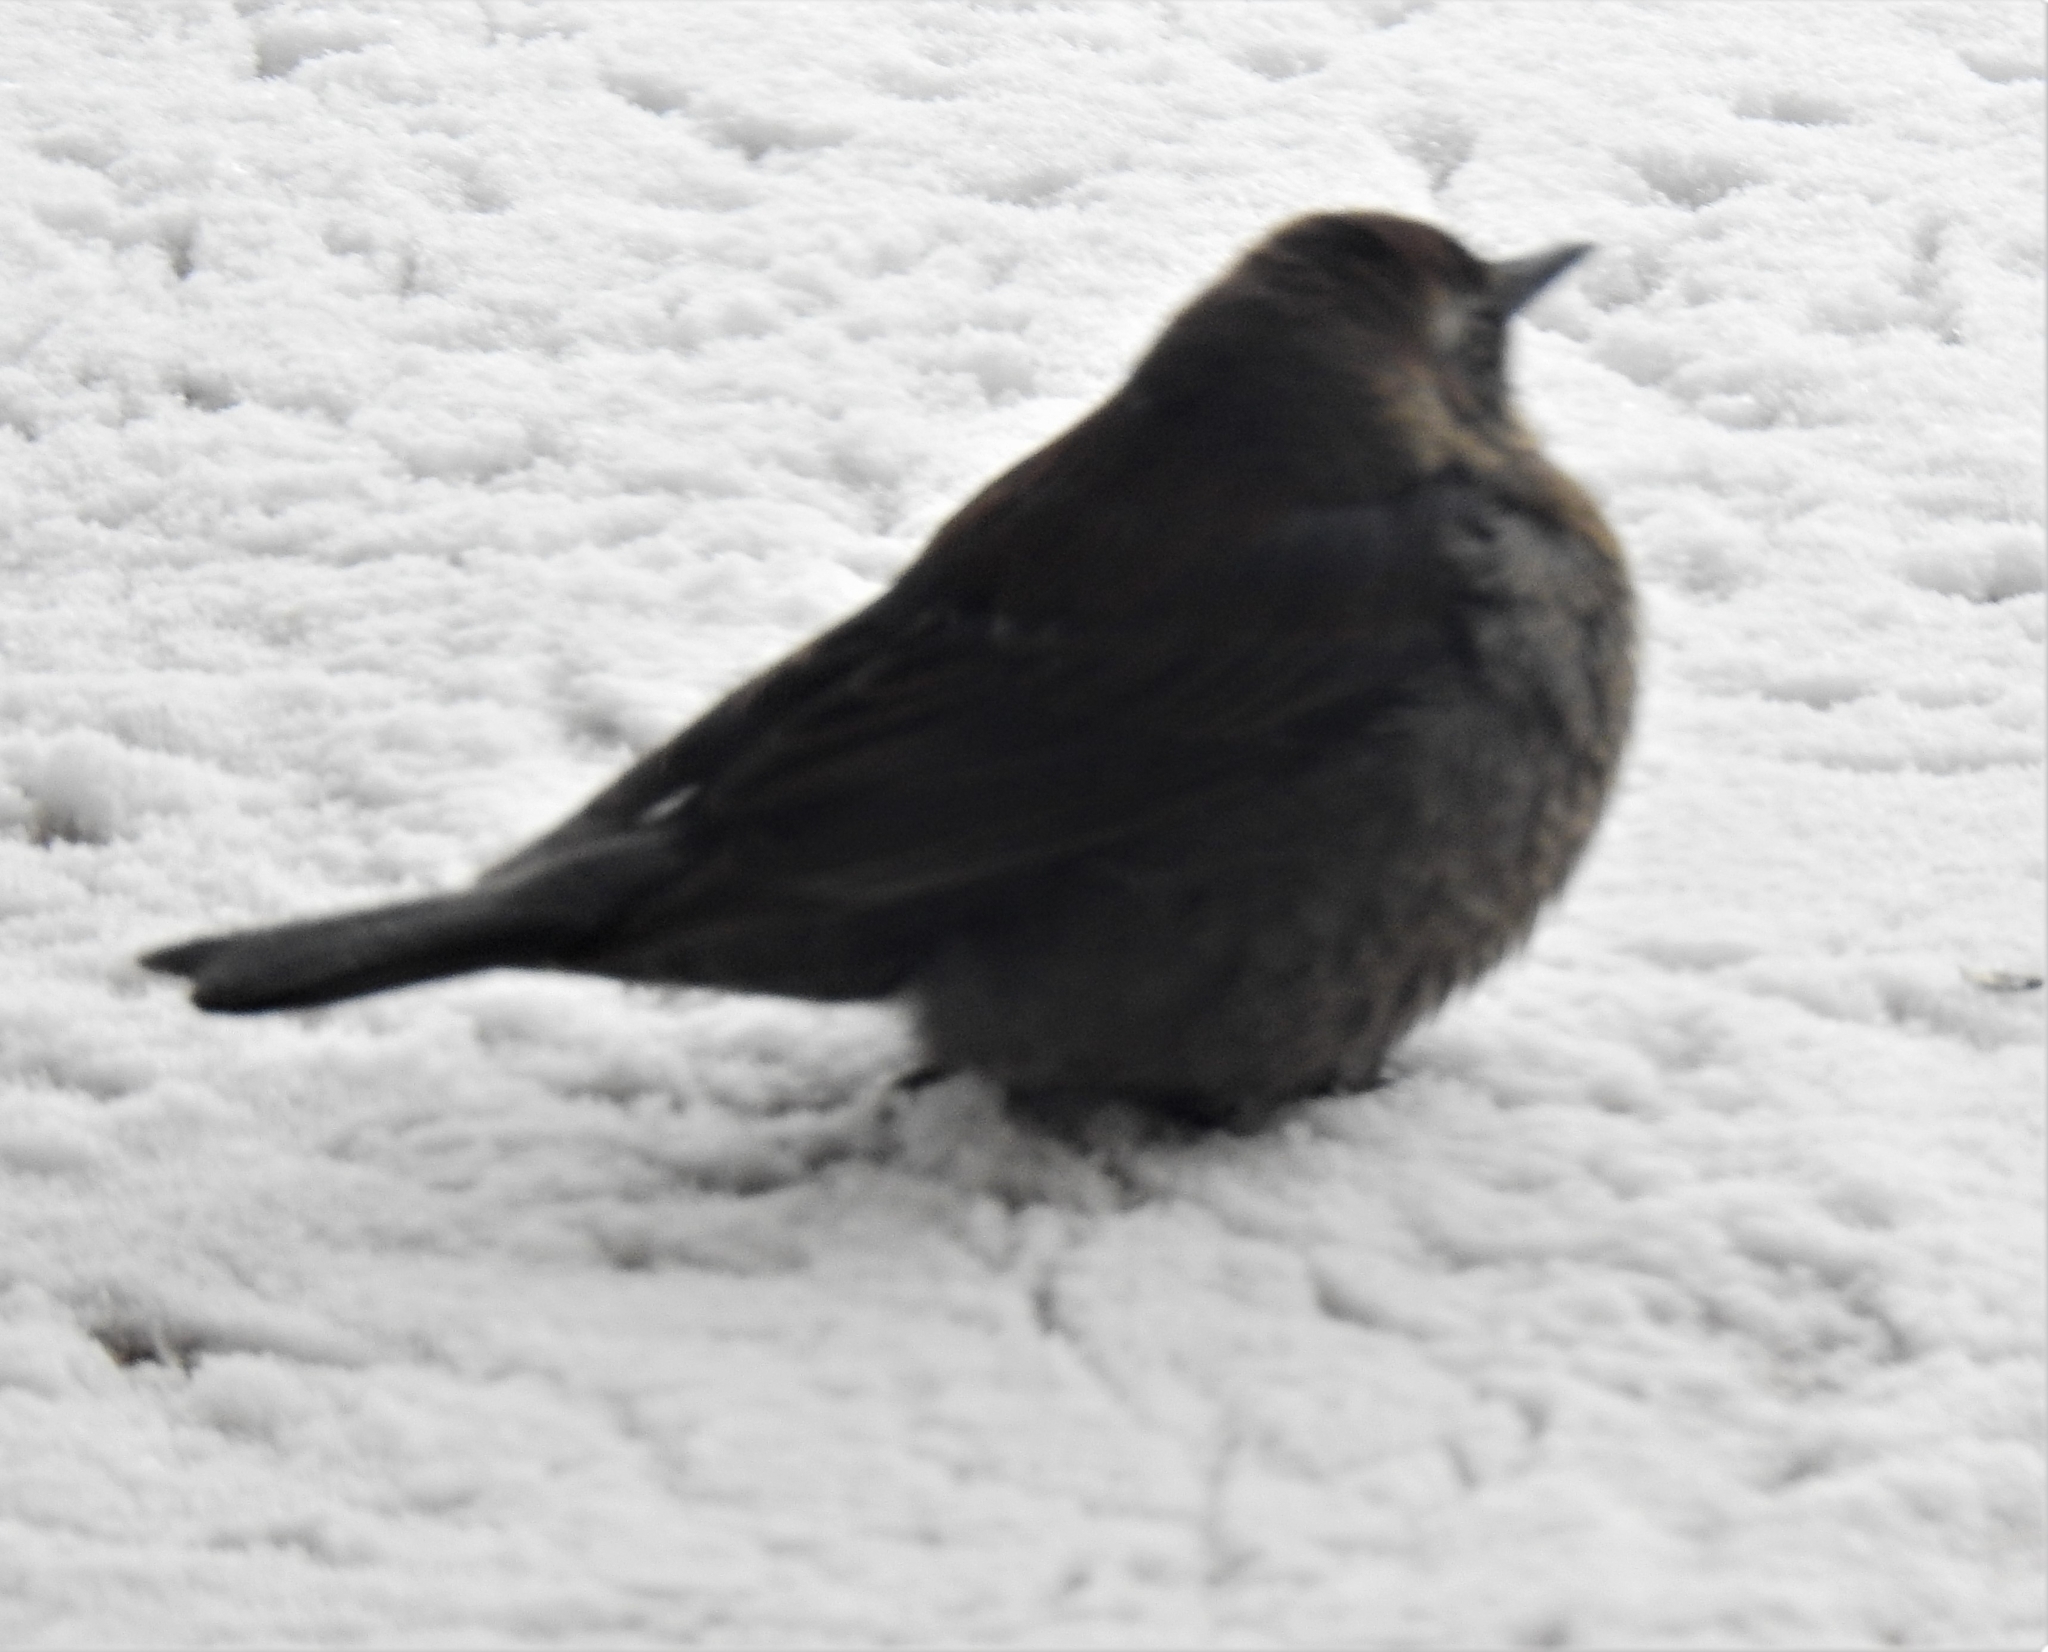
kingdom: Animalia
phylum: Chordata
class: Aves
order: Passeriformes
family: Icteridae
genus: Euphagus
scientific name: Euphagus carolinus
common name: Rusty blackbird
